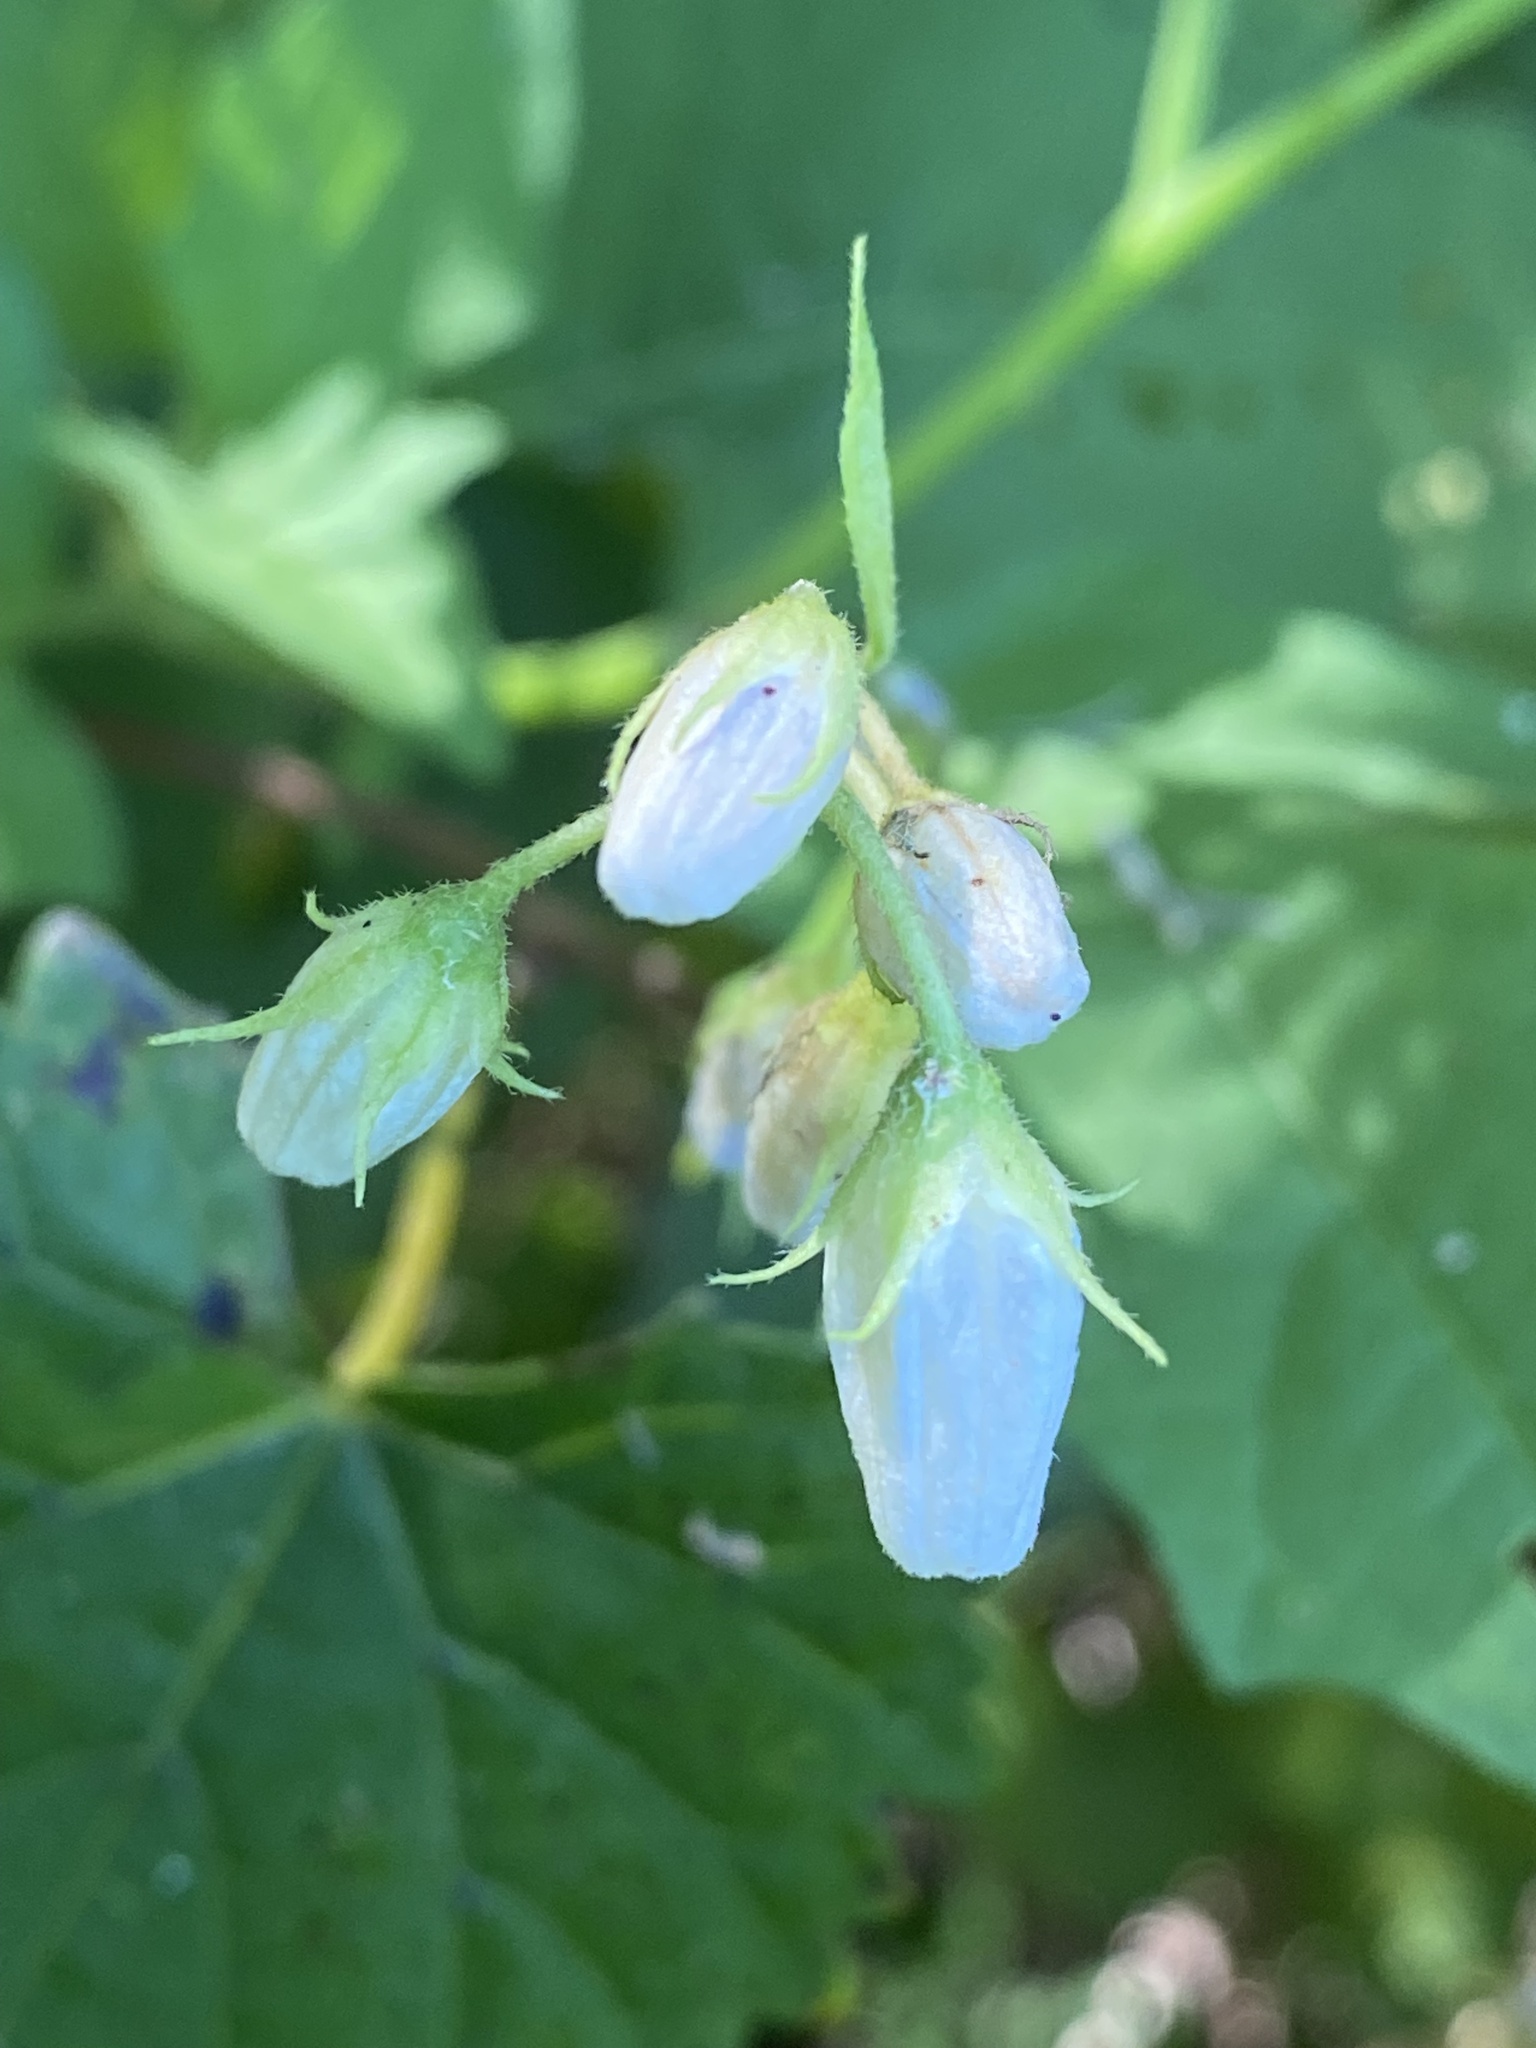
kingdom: Plantae
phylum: Tracheophyta
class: Magnoliopsida
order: Solanales
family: Solanaceae
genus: Solanum
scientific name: Solanum carolinense
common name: Horse-nettle
